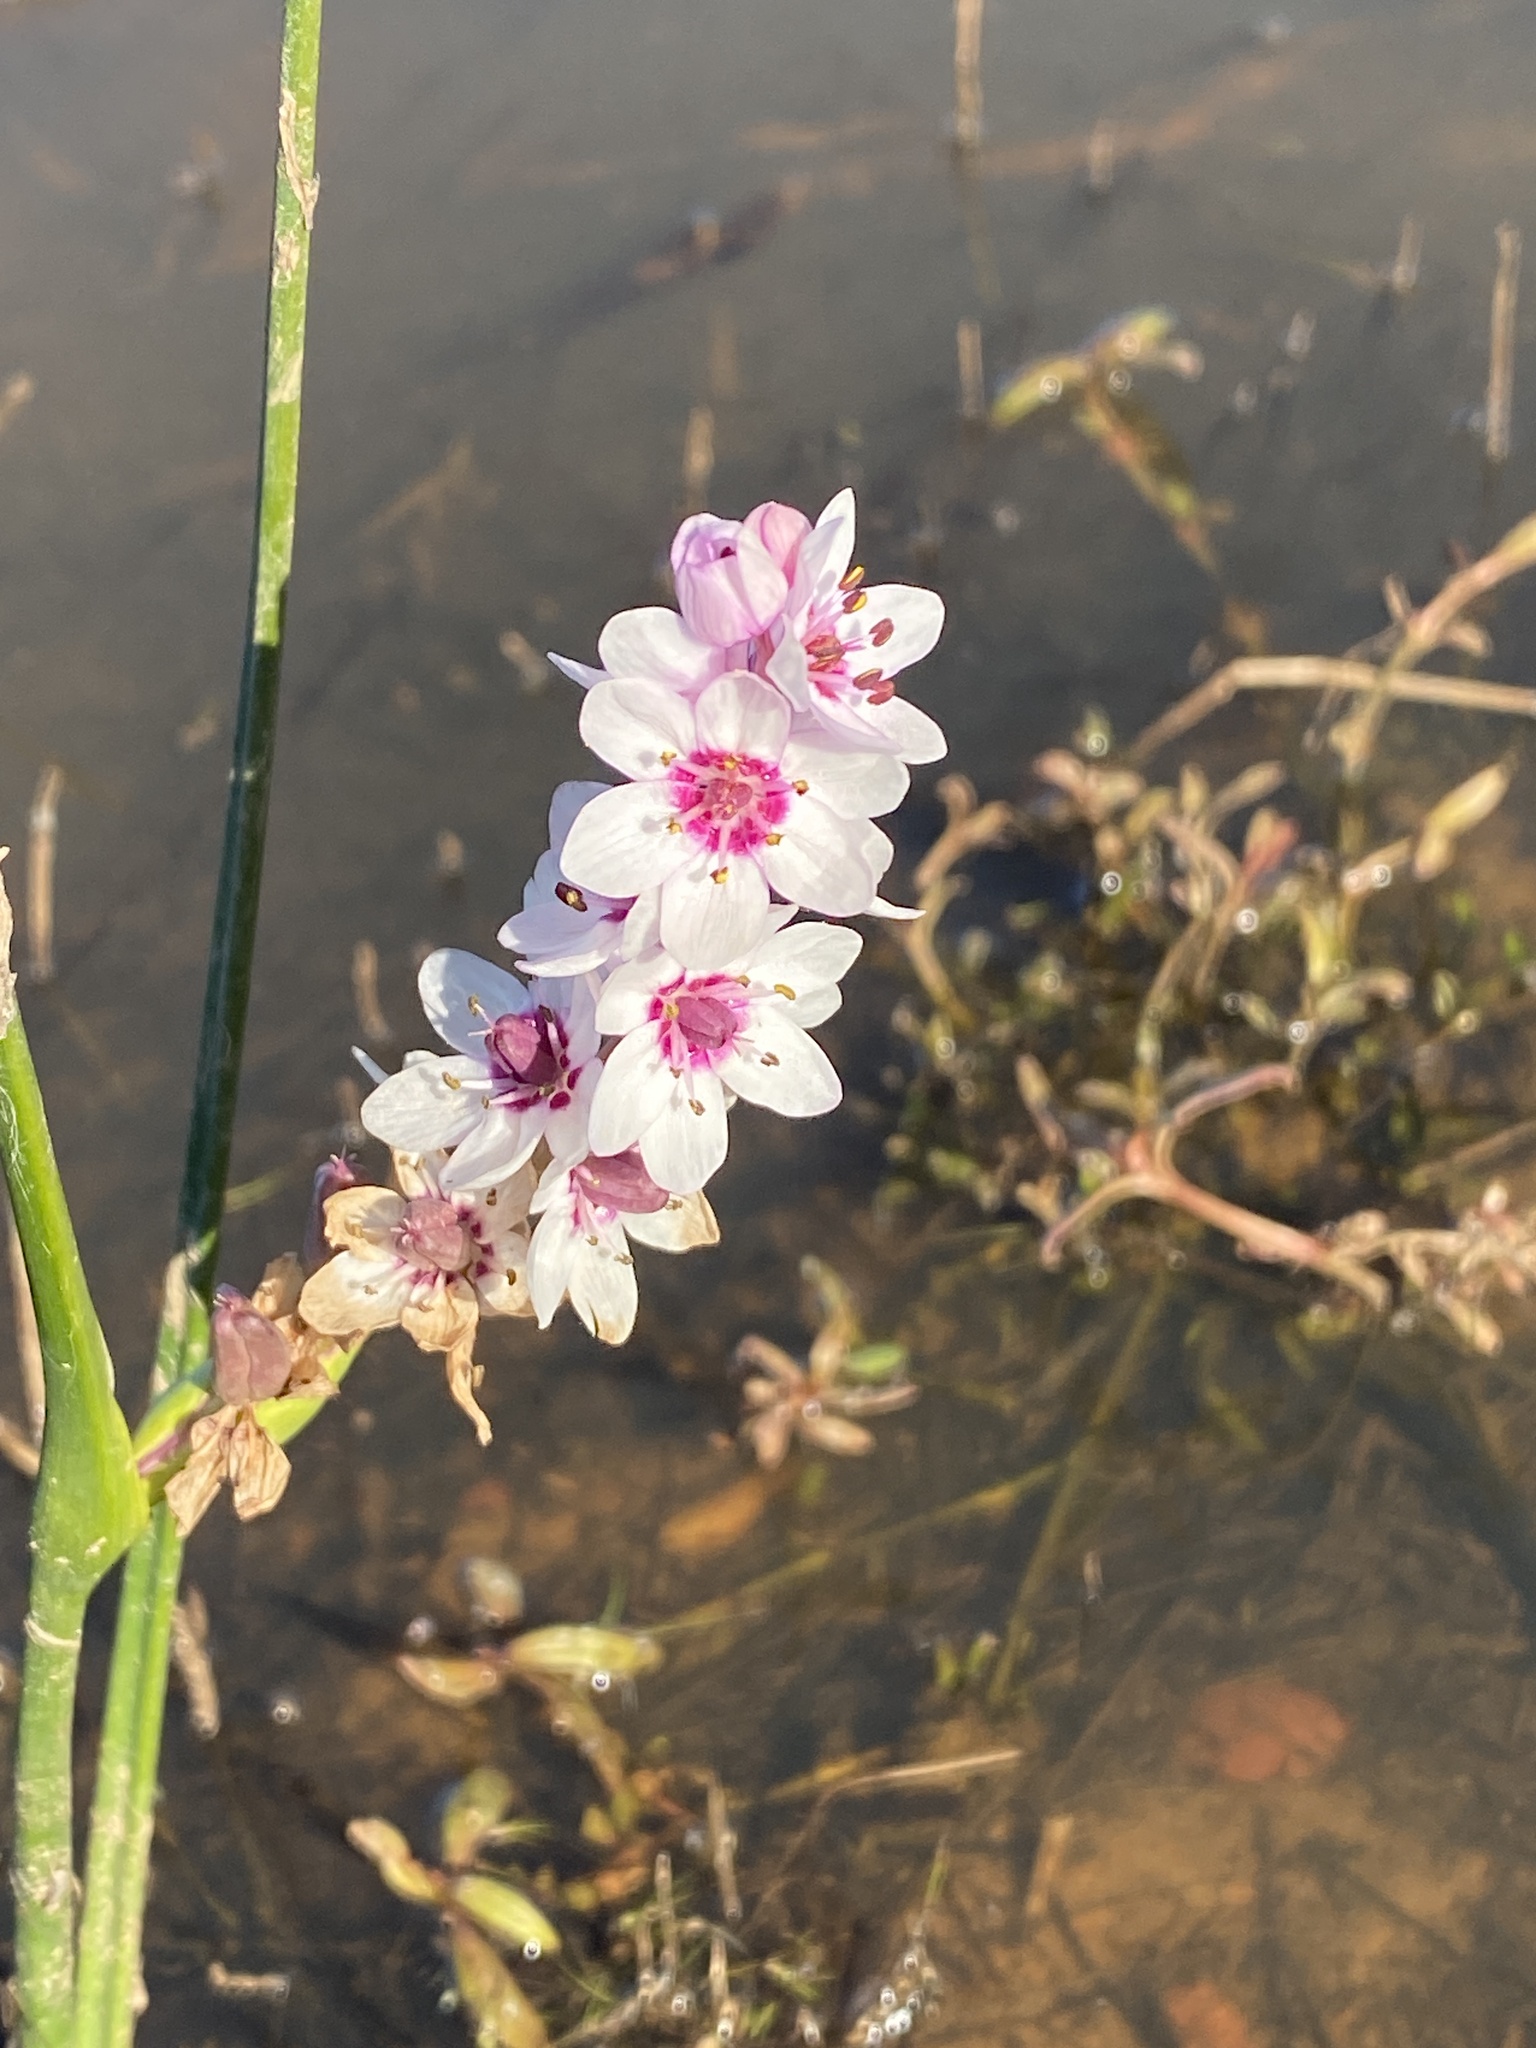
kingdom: Plantae
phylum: Tracheophyta
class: Liliopsida
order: Liliales
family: Colchicaceae
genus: Wurmbea
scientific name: Wurmbea stricta
